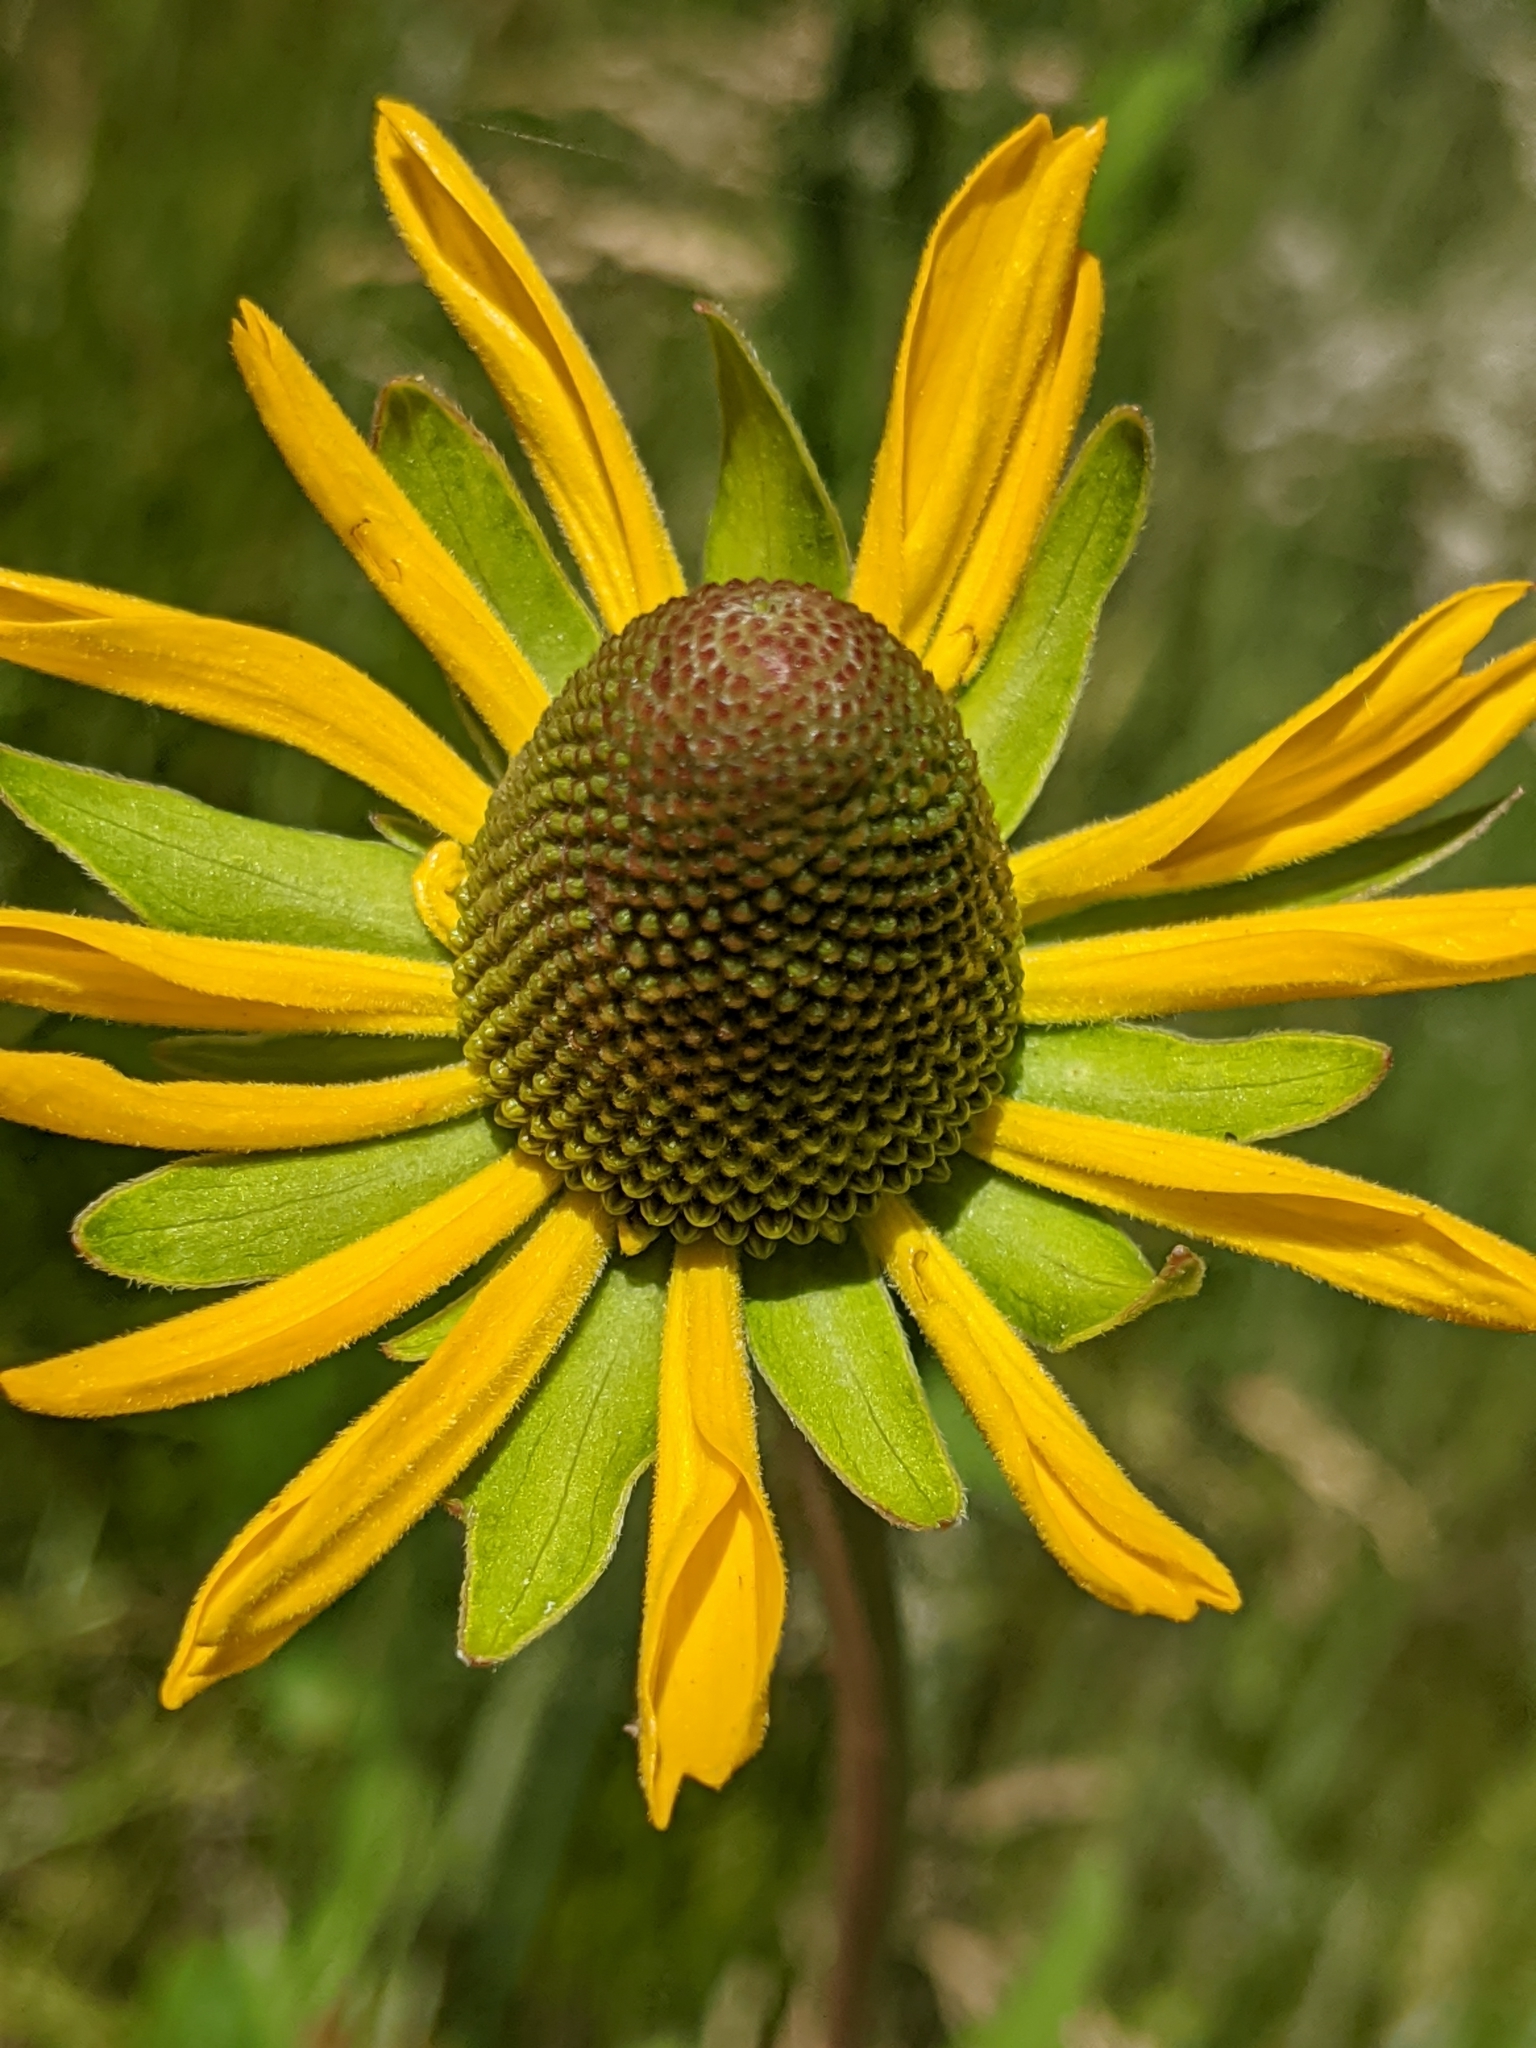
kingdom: Plantae
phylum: Tracheophyta
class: Magnoliopsida
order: Asterales
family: Asteraceae
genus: Rudbeckia
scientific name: Rudbeckia californica
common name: California coneflower
